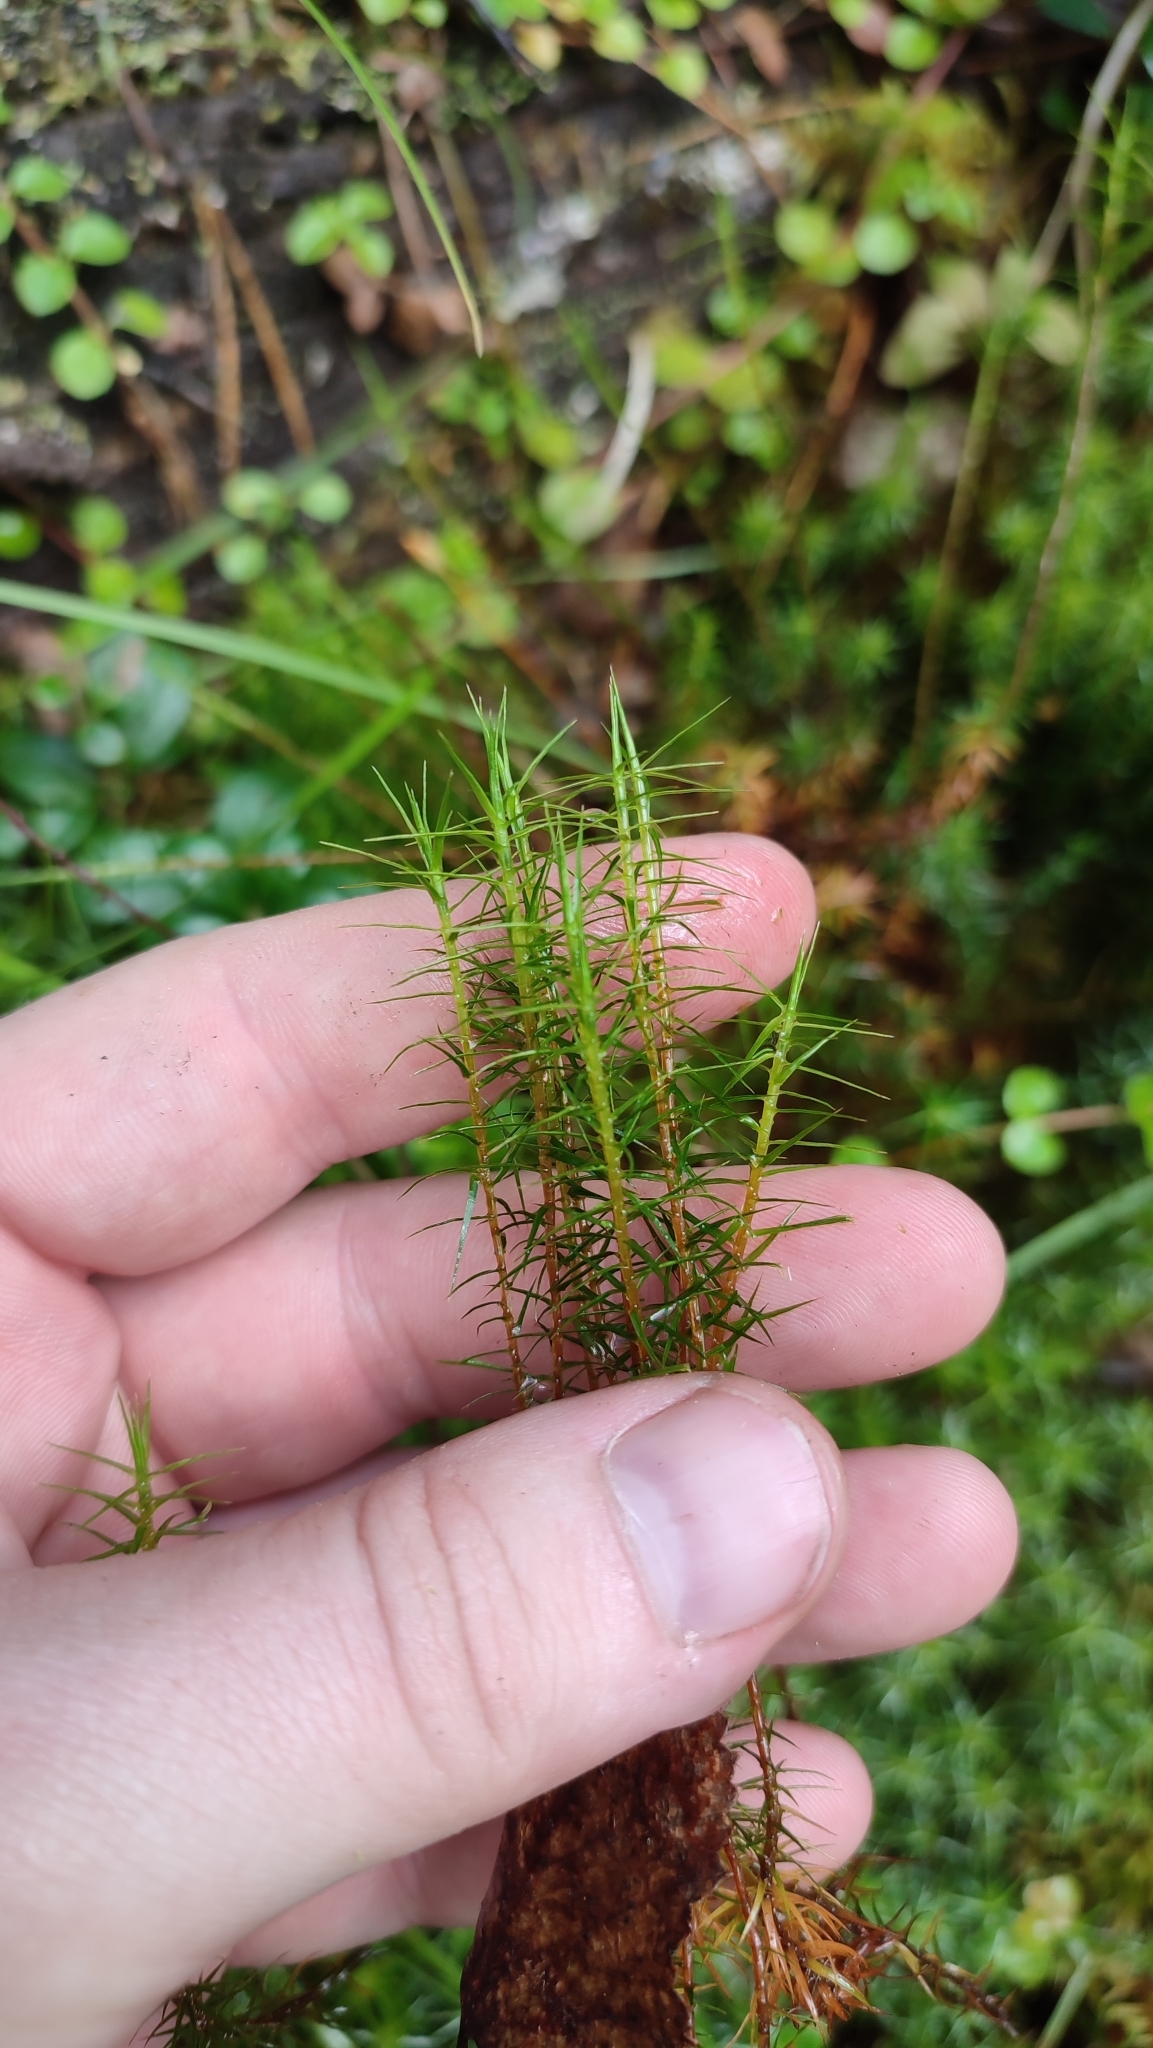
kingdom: Plantae
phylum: Bryophyta
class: Polytrichopsida
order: Polytrichales
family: Polytrichaceae
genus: Polytrichum
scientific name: Polytrichum commune
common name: Common haircap
